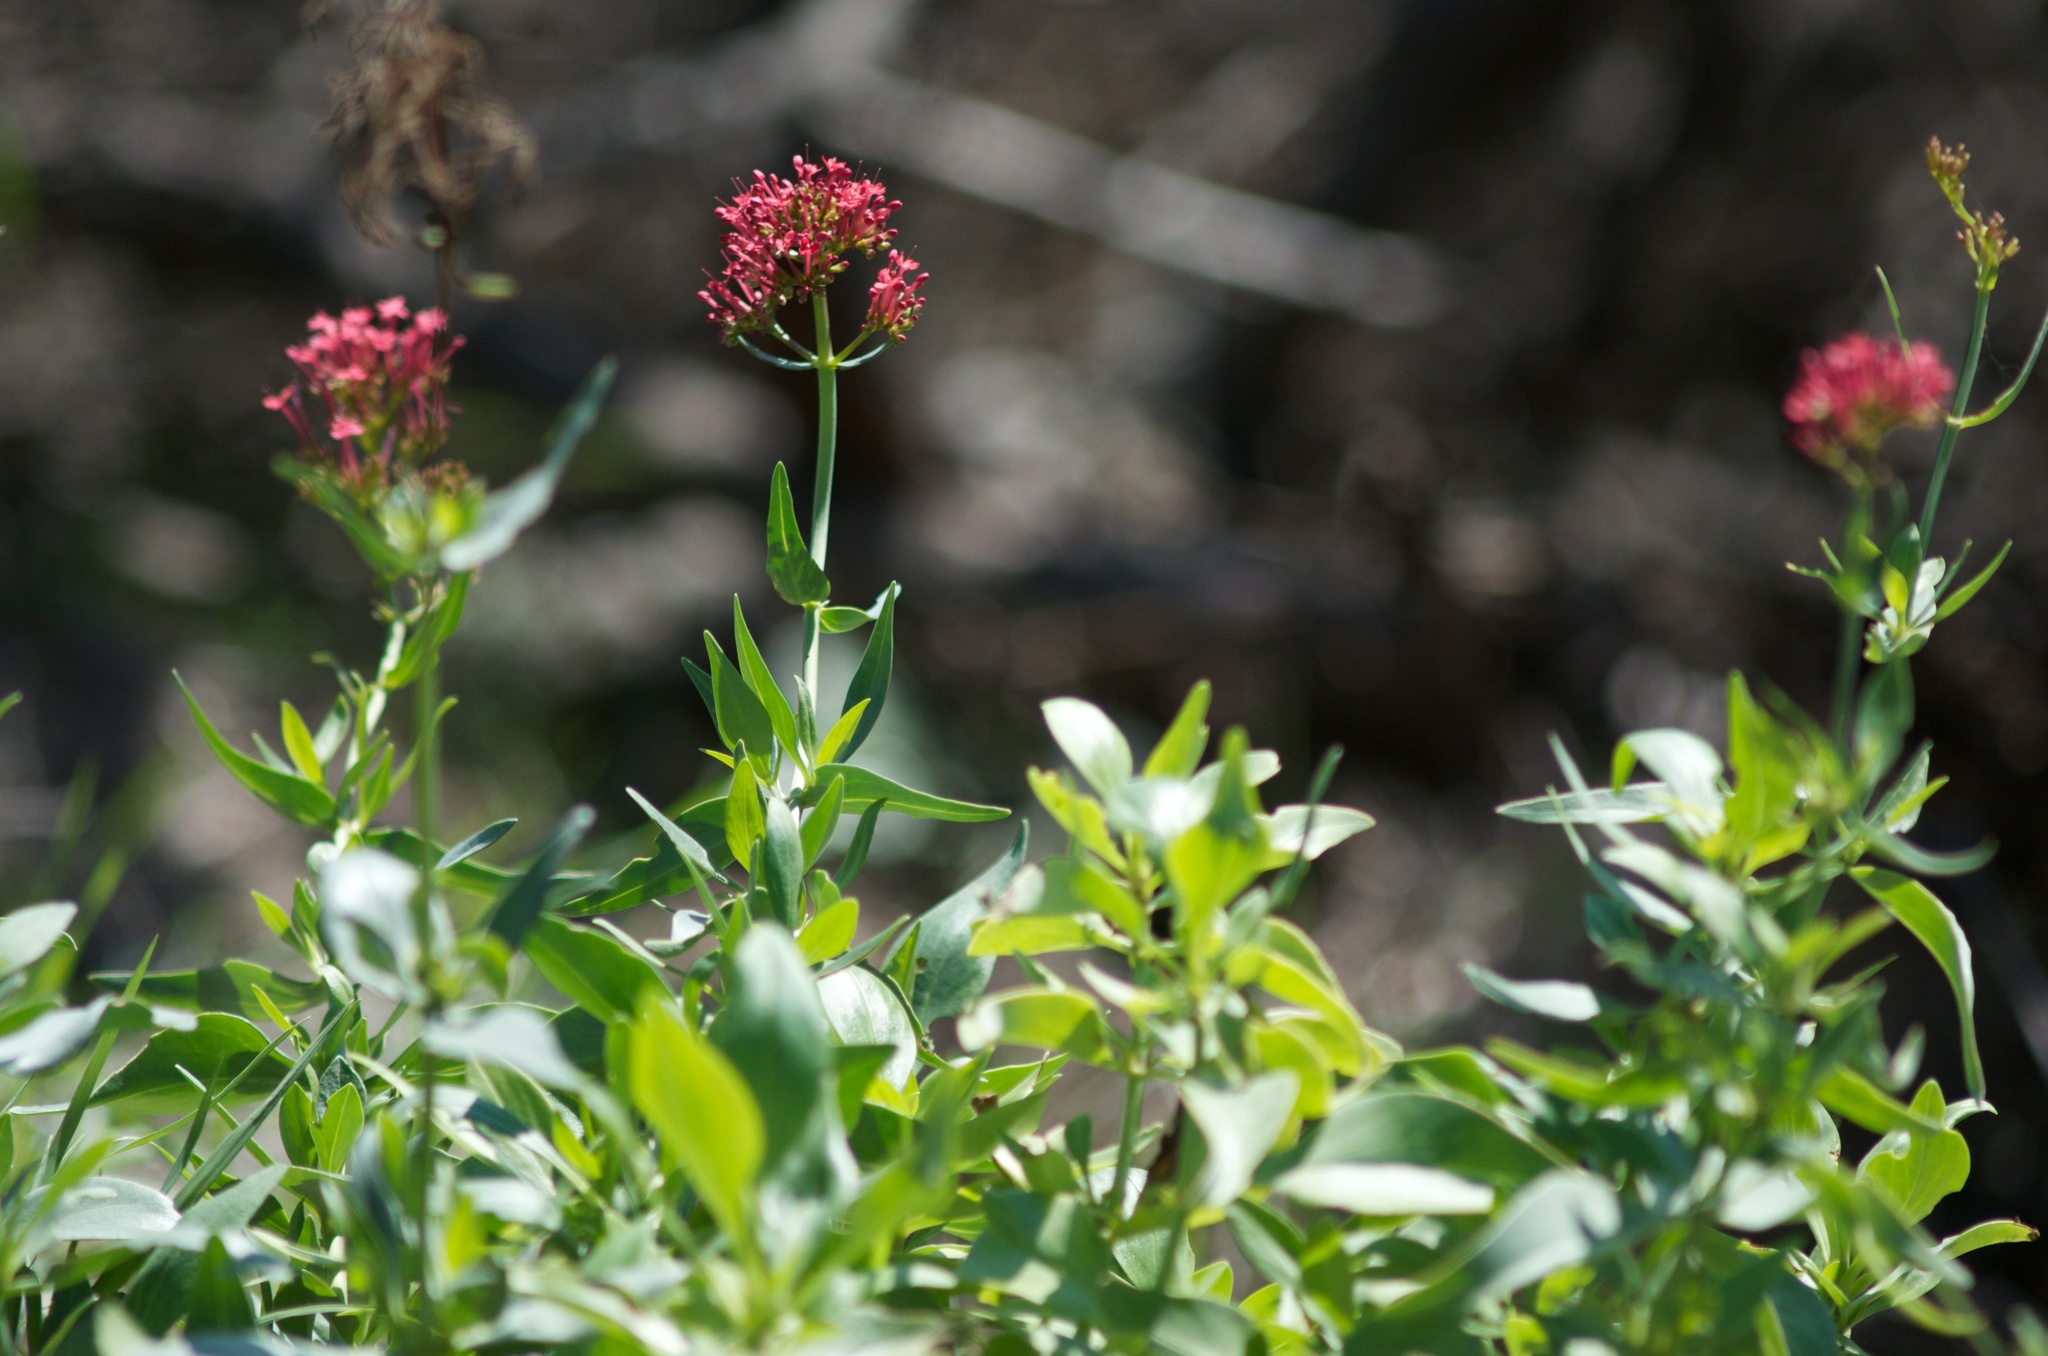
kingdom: Plantae
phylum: Tracheophyta
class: Magnoliopsida
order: Dipsacales
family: Caprifoliaceae
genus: Centranthus
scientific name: Centranthus ruber
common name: Red valerian
